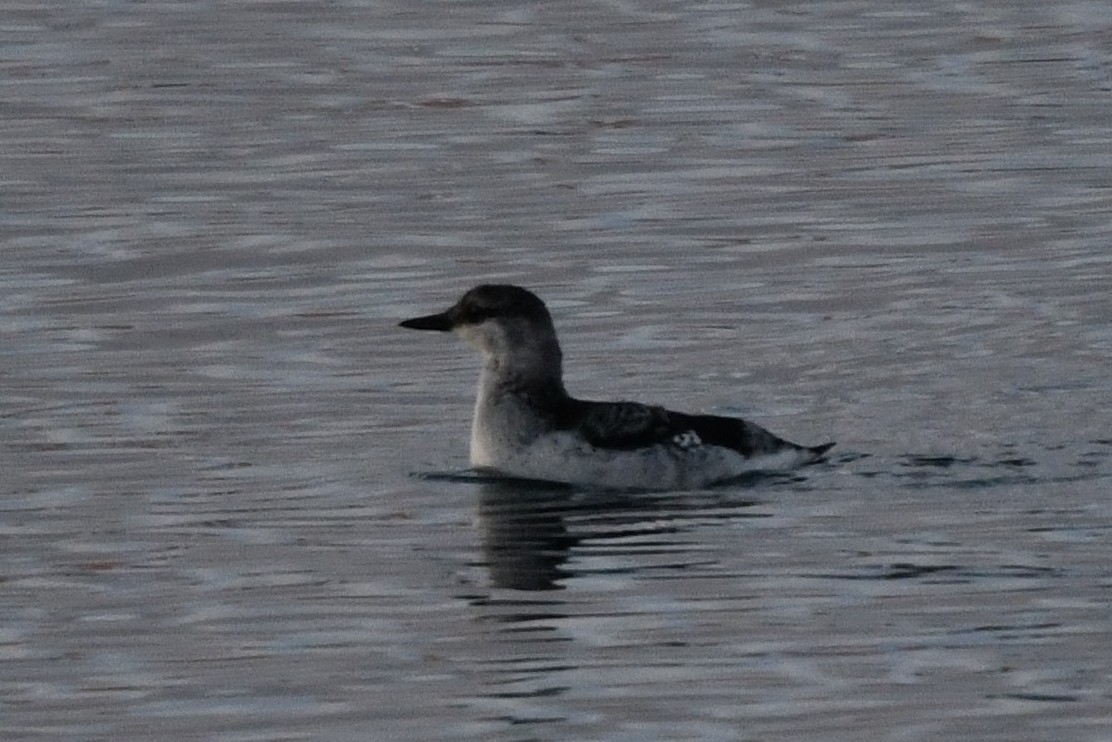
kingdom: Animalia
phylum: Chordata
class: Aves
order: Charadriiformes
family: Alcidae
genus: Cepphus
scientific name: Cepphus grylle
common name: Black guillemot
